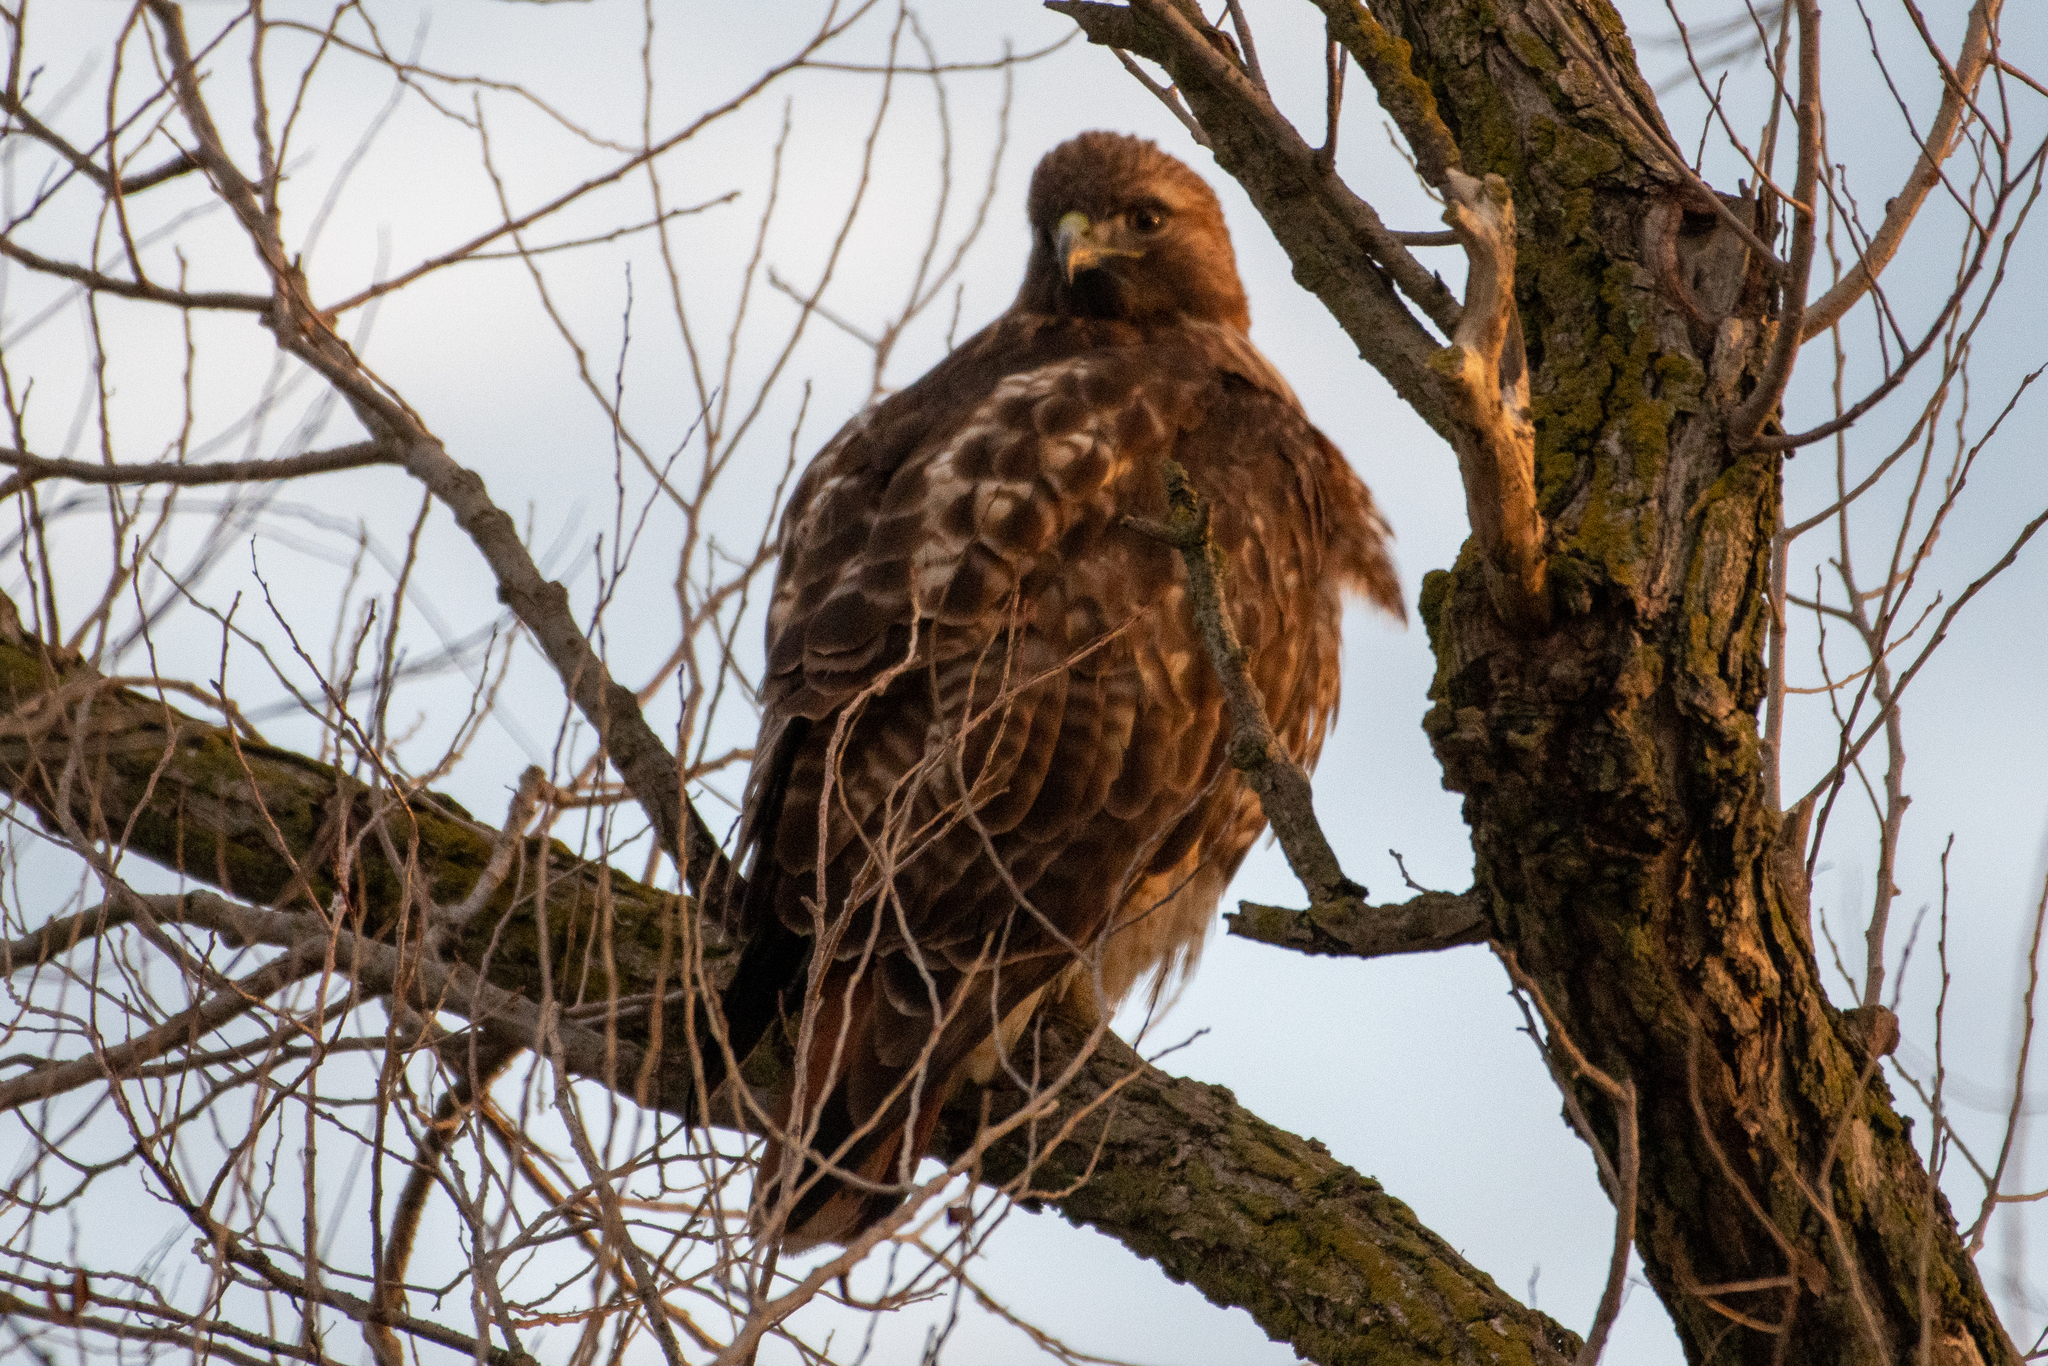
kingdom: Animalia
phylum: Chordata
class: Aves
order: Accipitriformes
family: Accipitridae
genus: Buteo
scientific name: Buteo jamaicensis
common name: Red-tailed hawk
